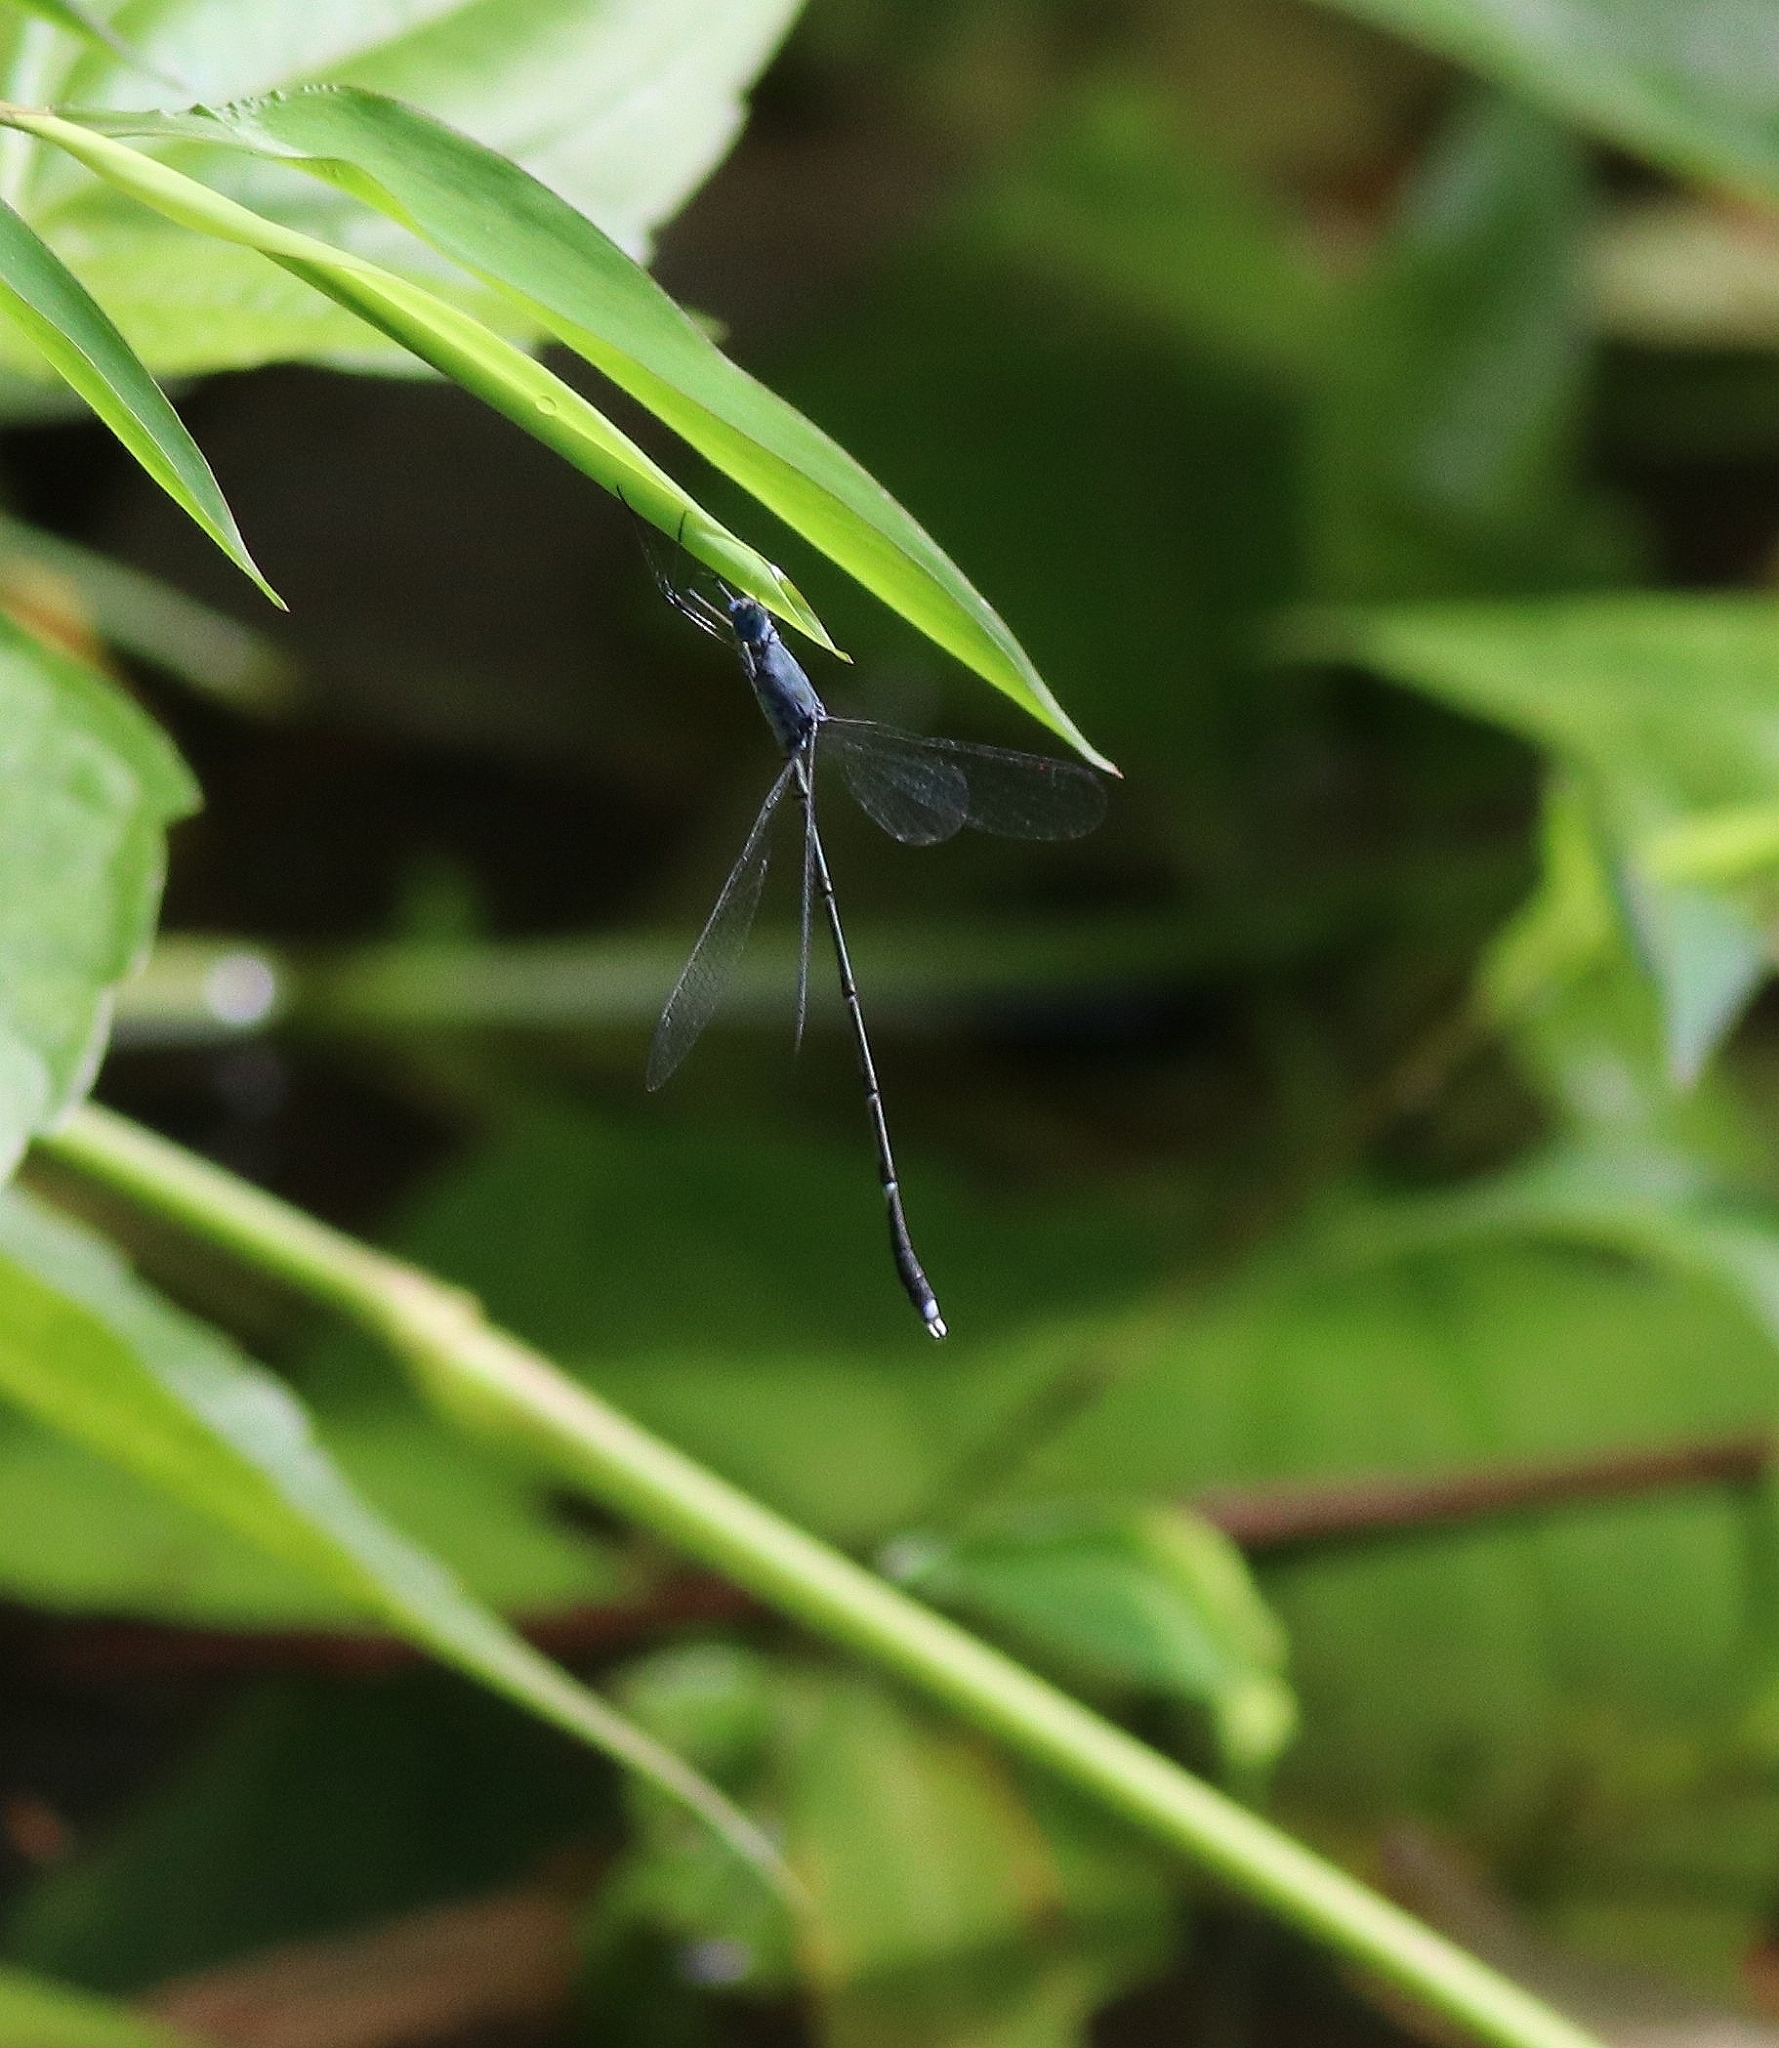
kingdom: Animalia
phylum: Arthropoda
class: Insecta
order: Odonata
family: Lestidae
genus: Lestes
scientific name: Lestes dorothea
